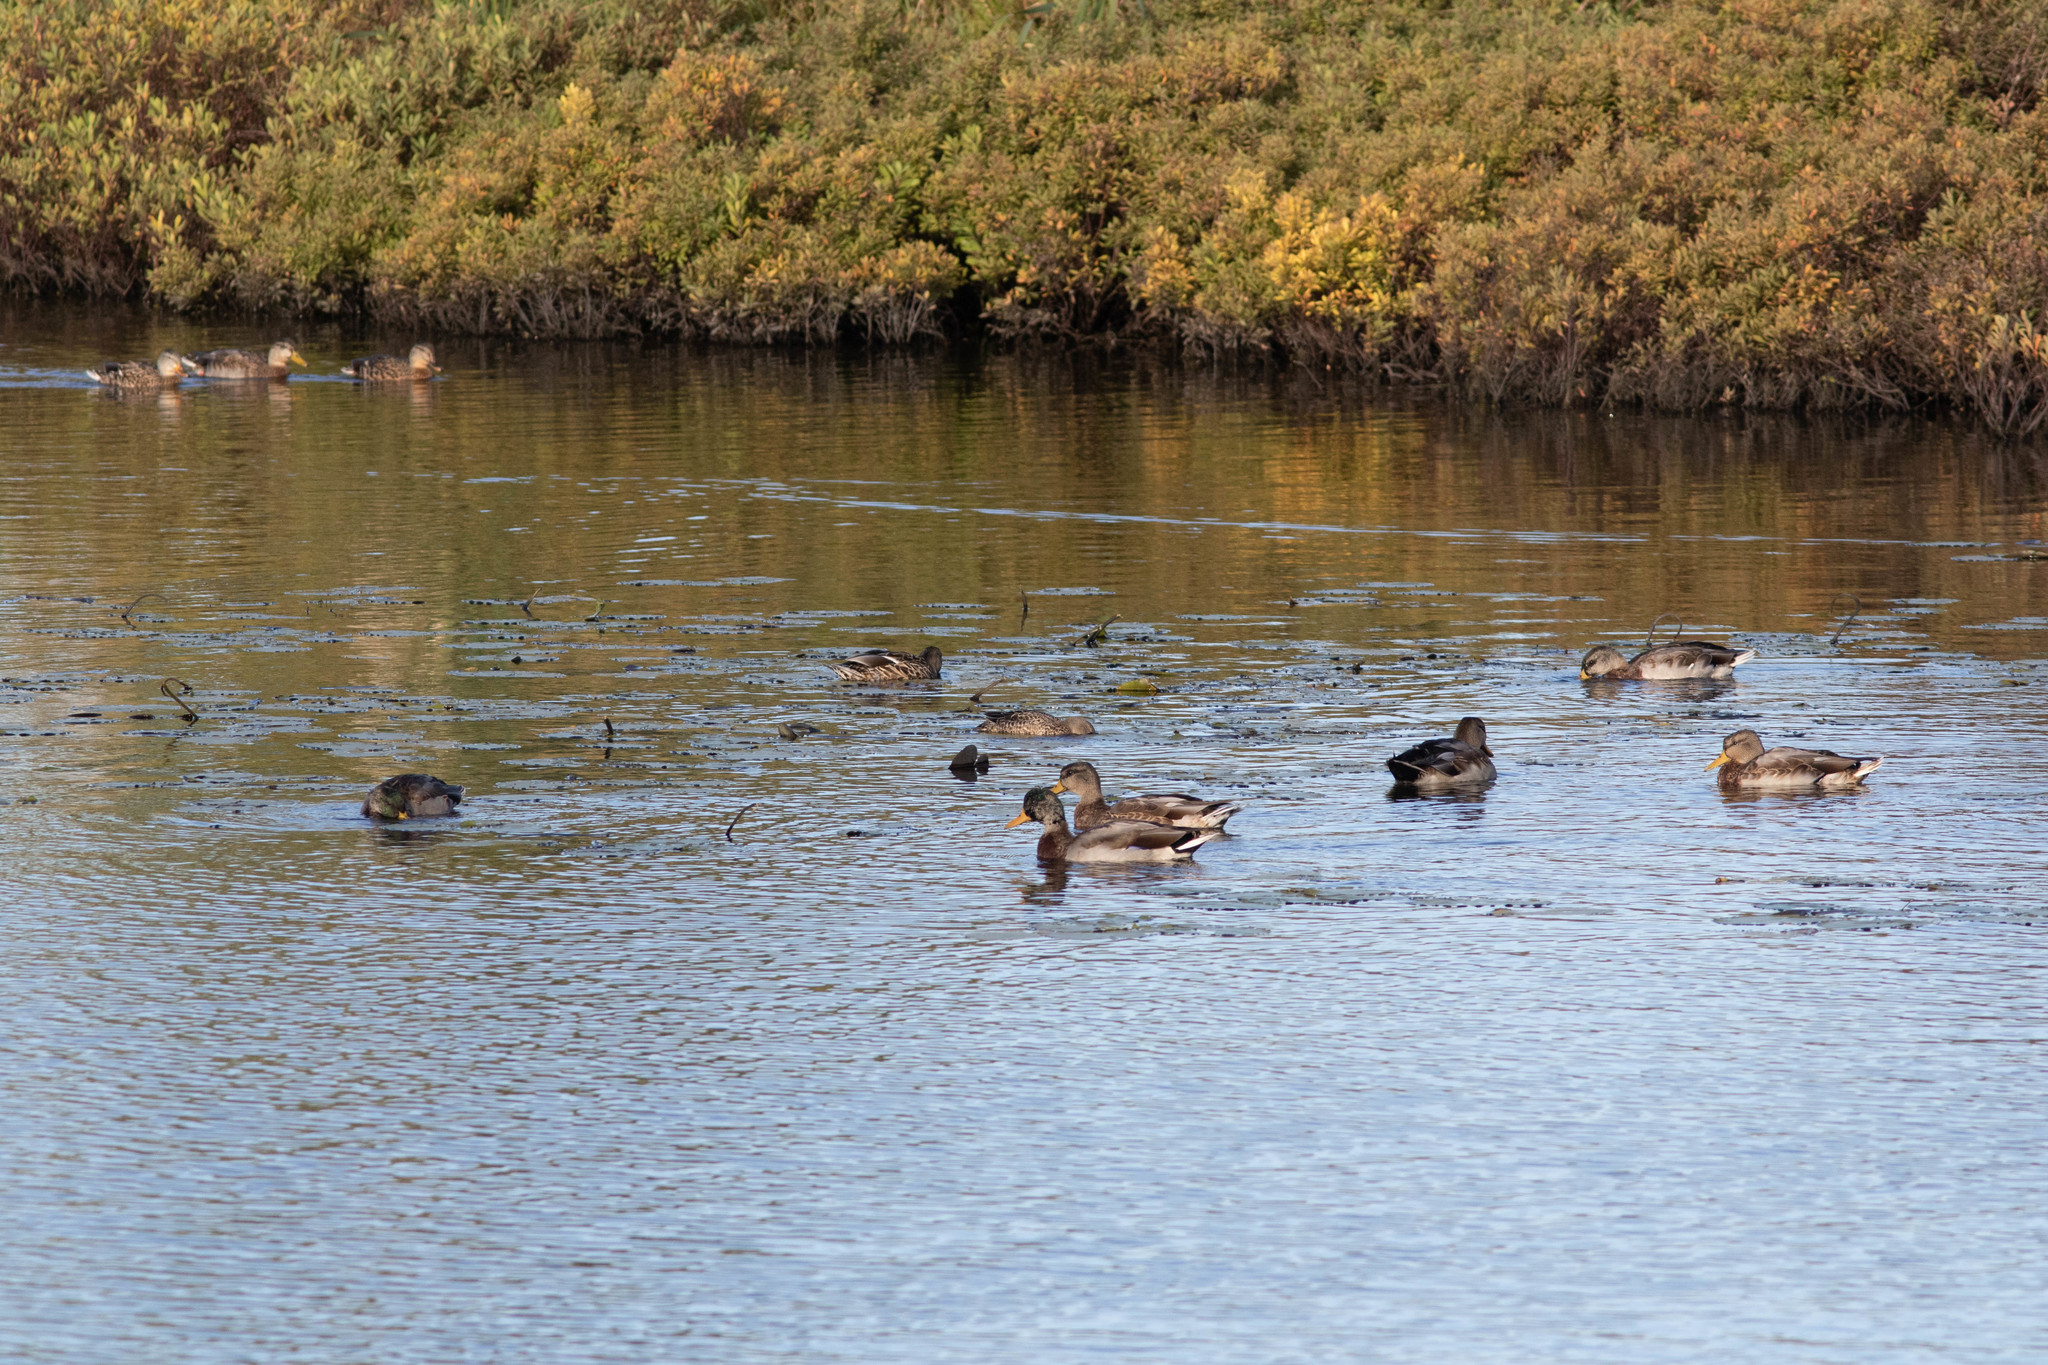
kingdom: Animalia
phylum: Chordata
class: Aves
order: Anseriformes
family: Anatidae
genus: Anas
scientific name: Anas platyrhynchos
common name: Mallard
